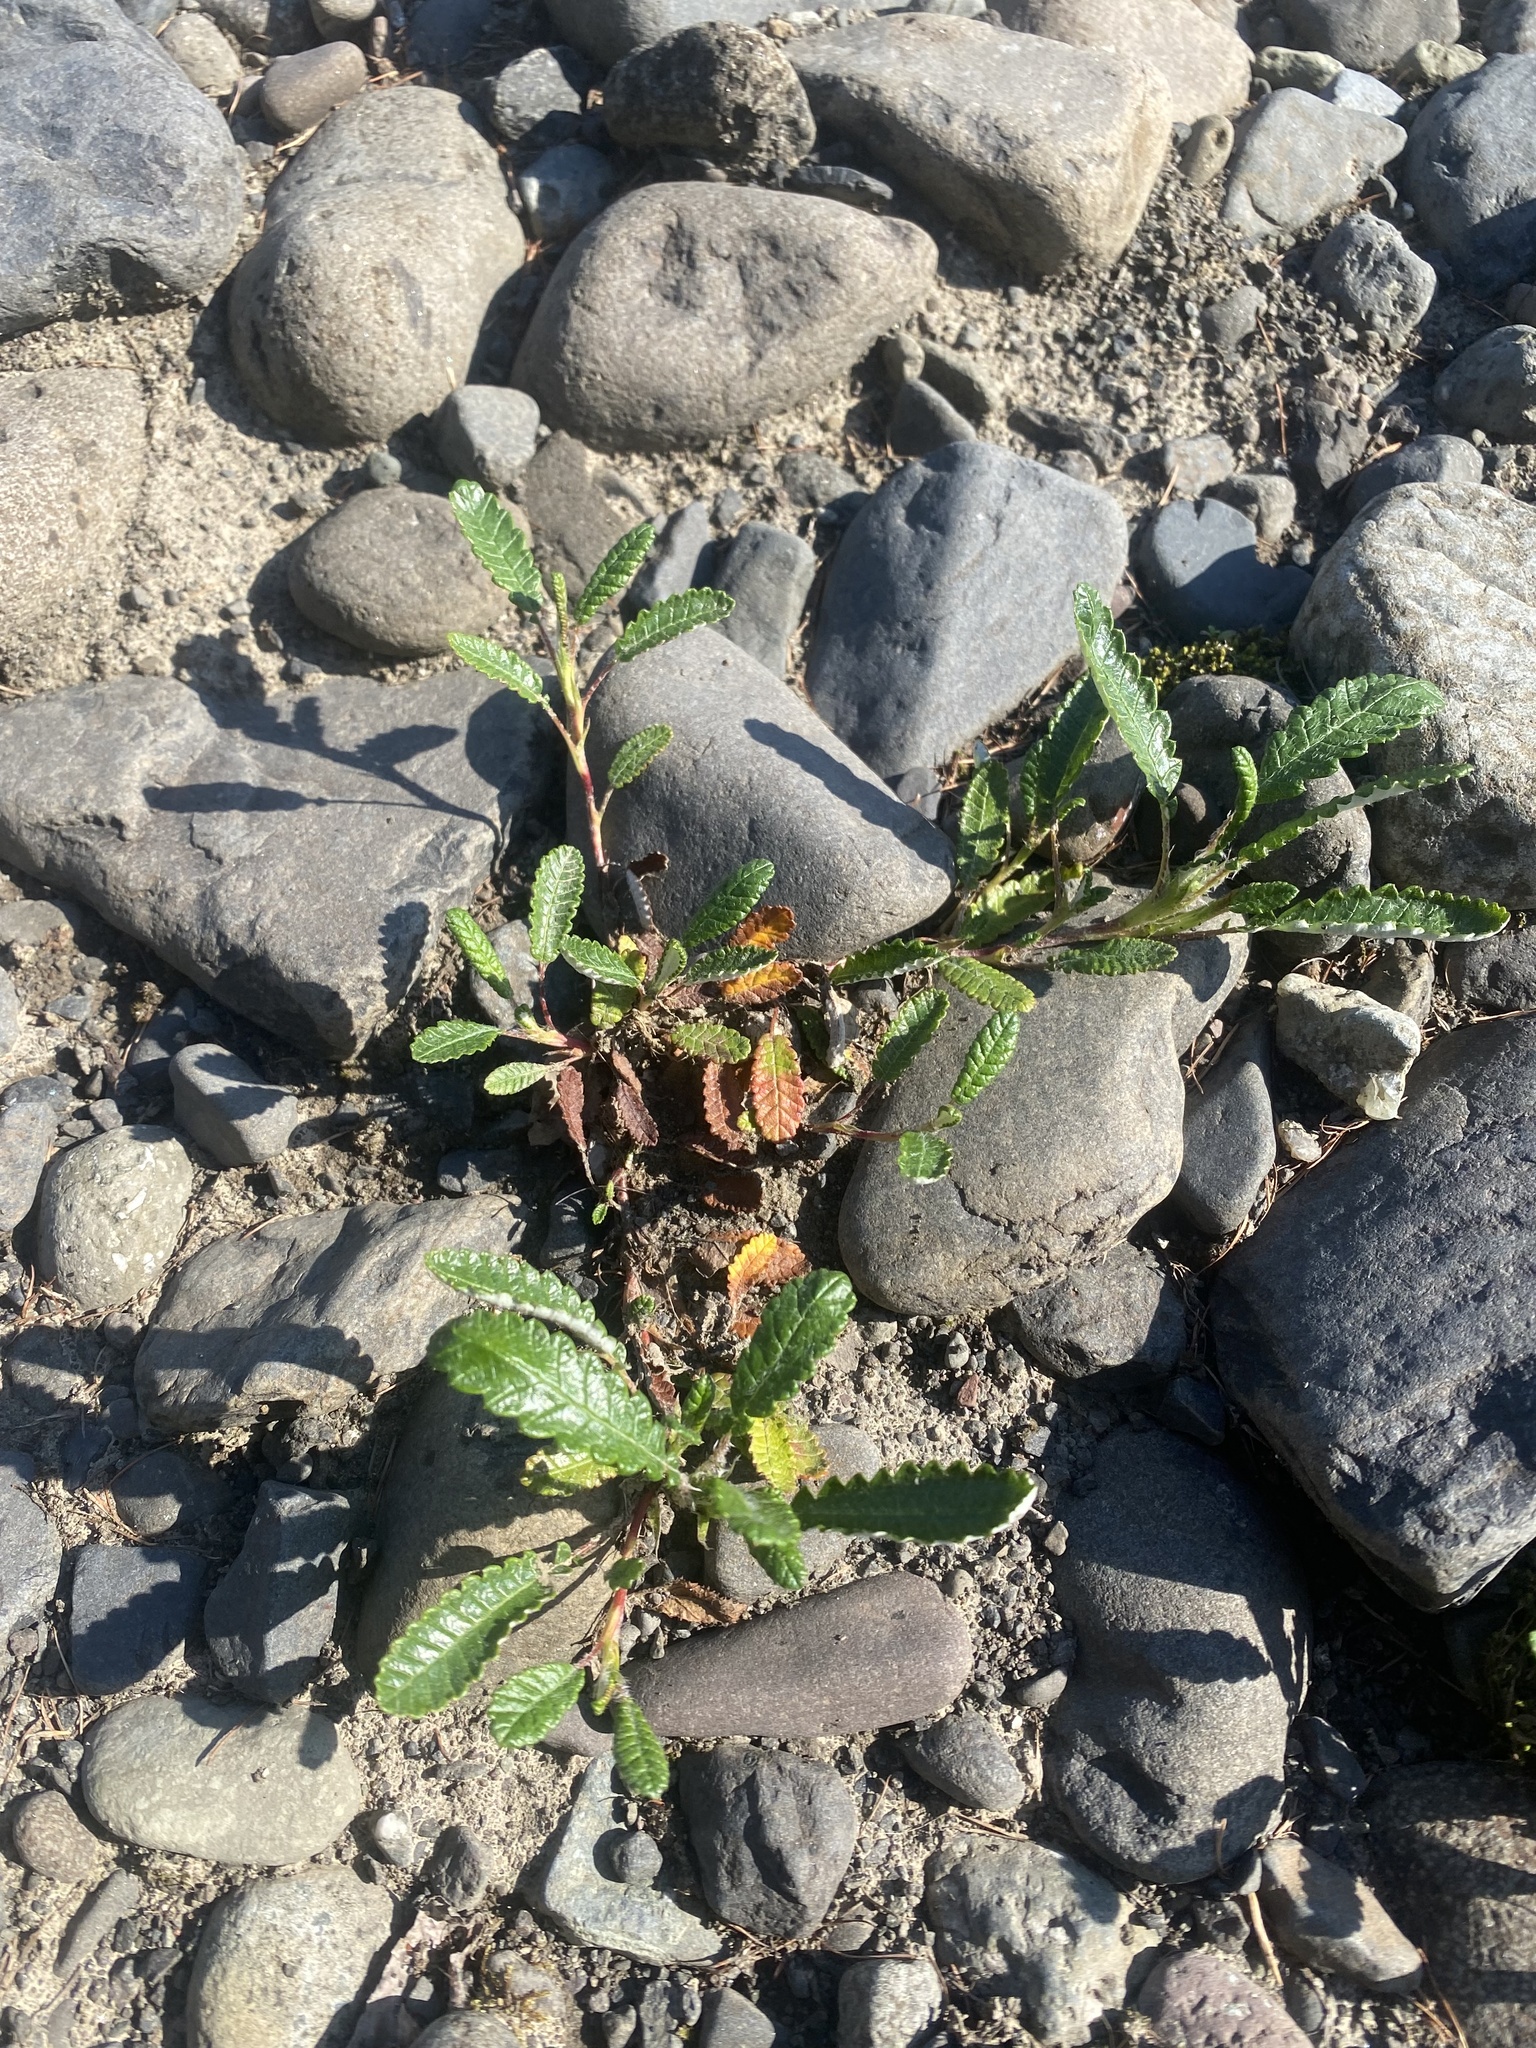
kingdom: Plantae
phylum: Tracheophyta
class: Magnoliopsida
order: Asterales
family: Asteraceae
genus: Askellia
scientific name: Askellia pygmaea
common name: Dwarf alpine hawksbeard
